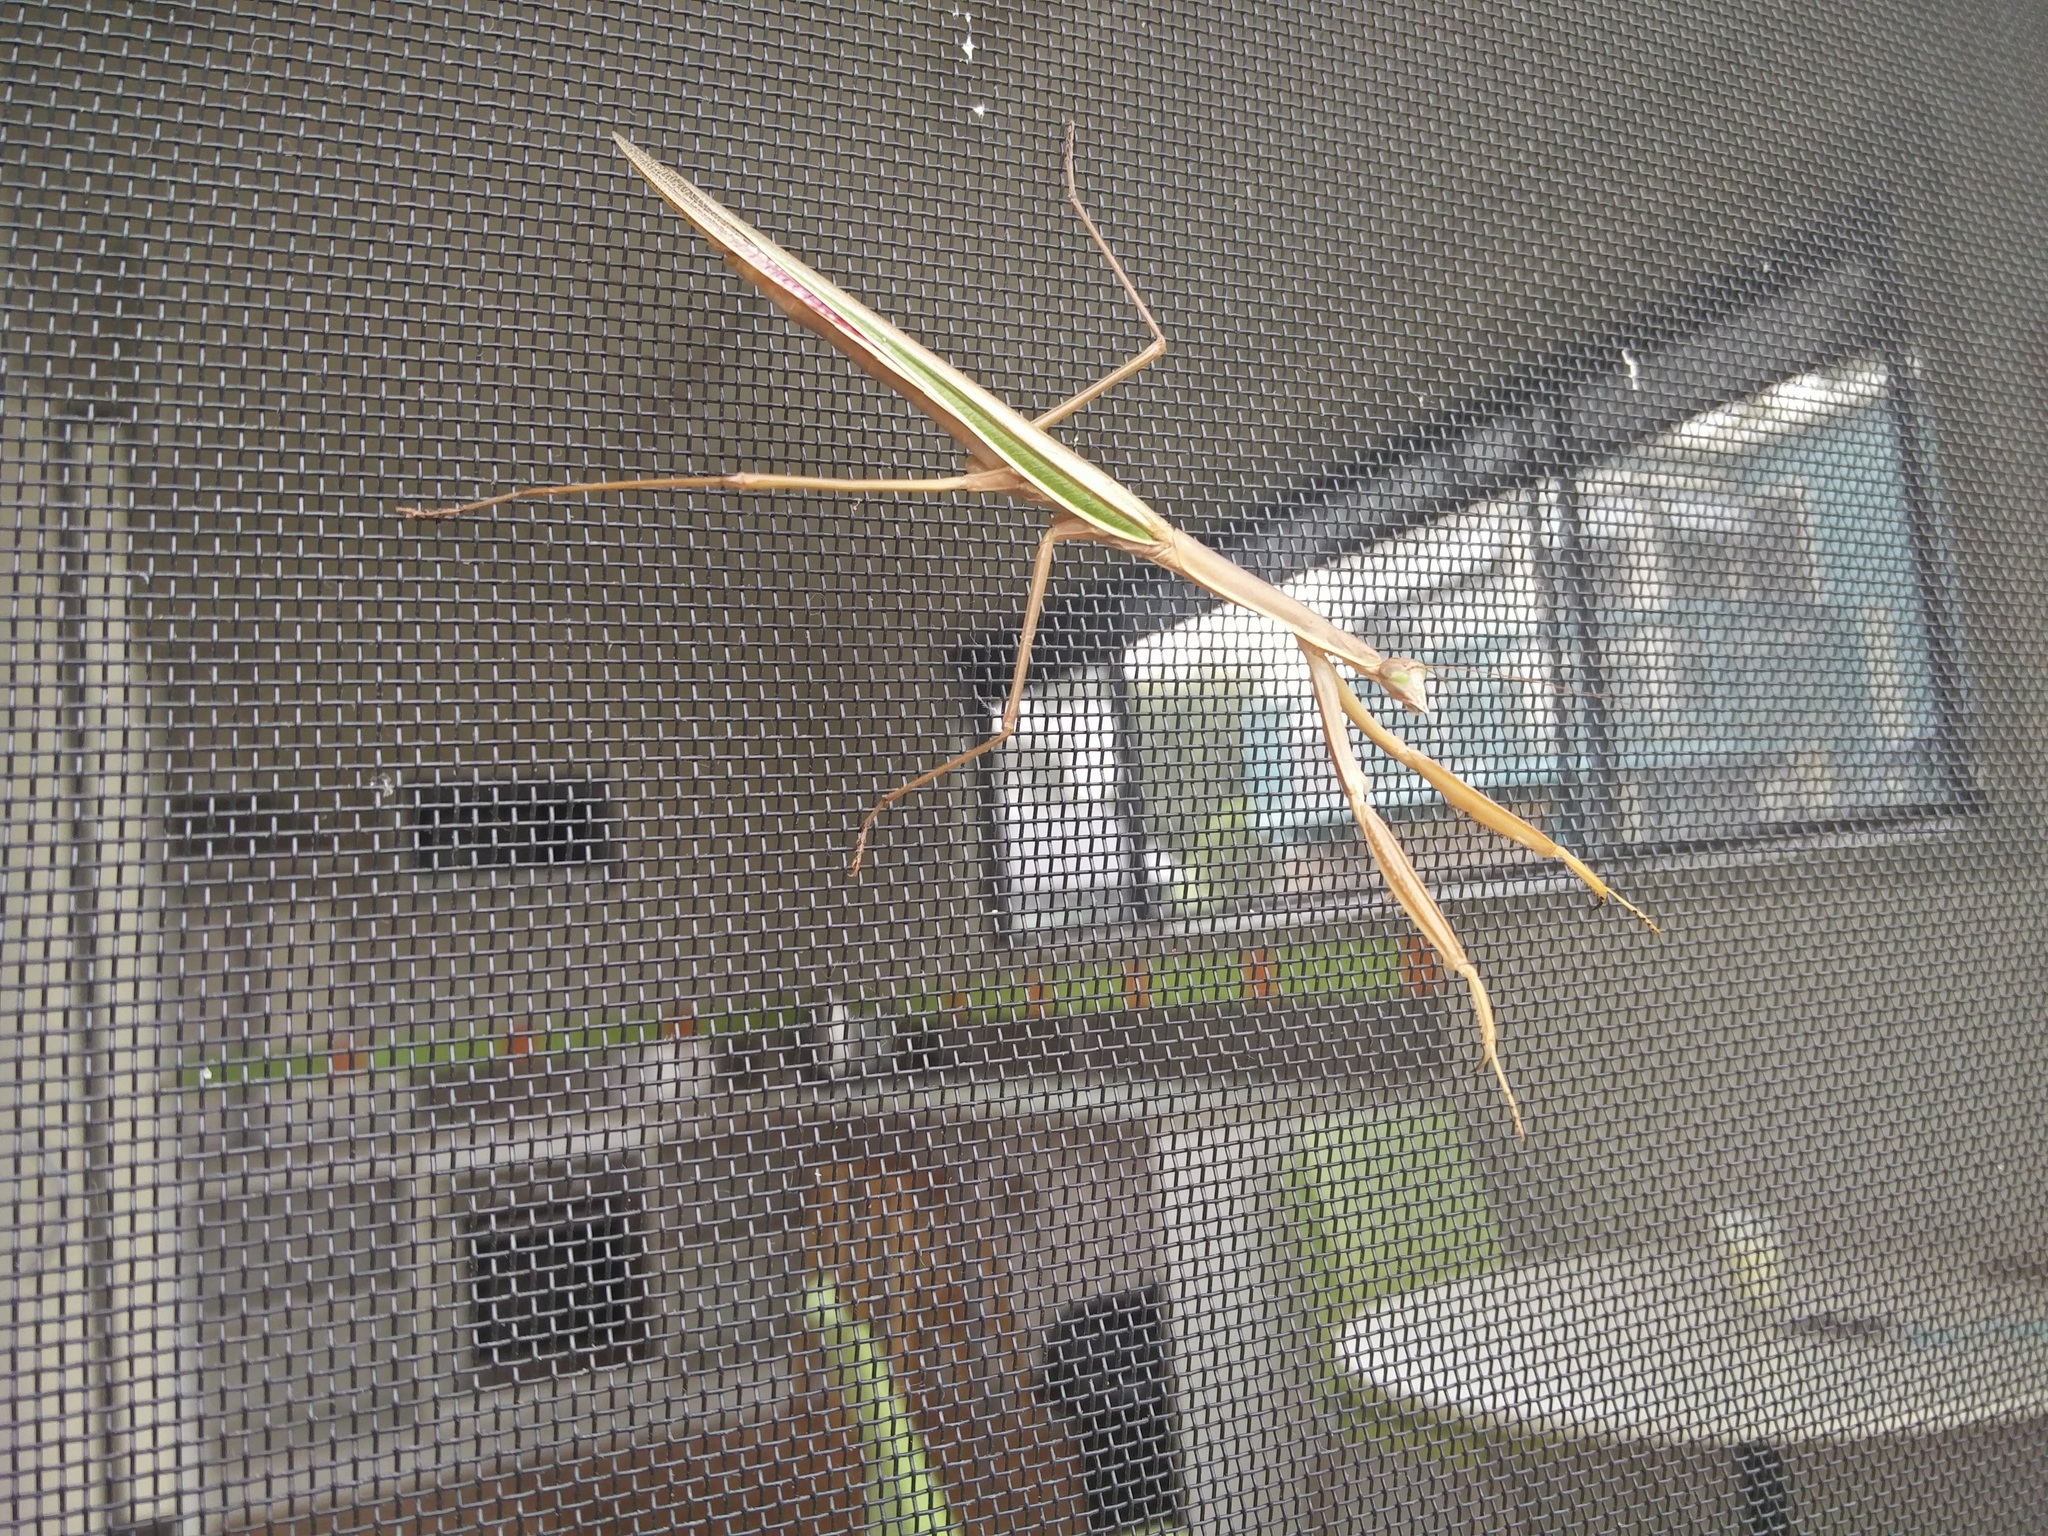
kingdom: Animalia
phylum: Arthropoda
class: Insecta
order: Mantodea
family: Mantidae
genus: Tenodera
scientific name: Tenodera australasiae
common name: Purple-winged mantis
